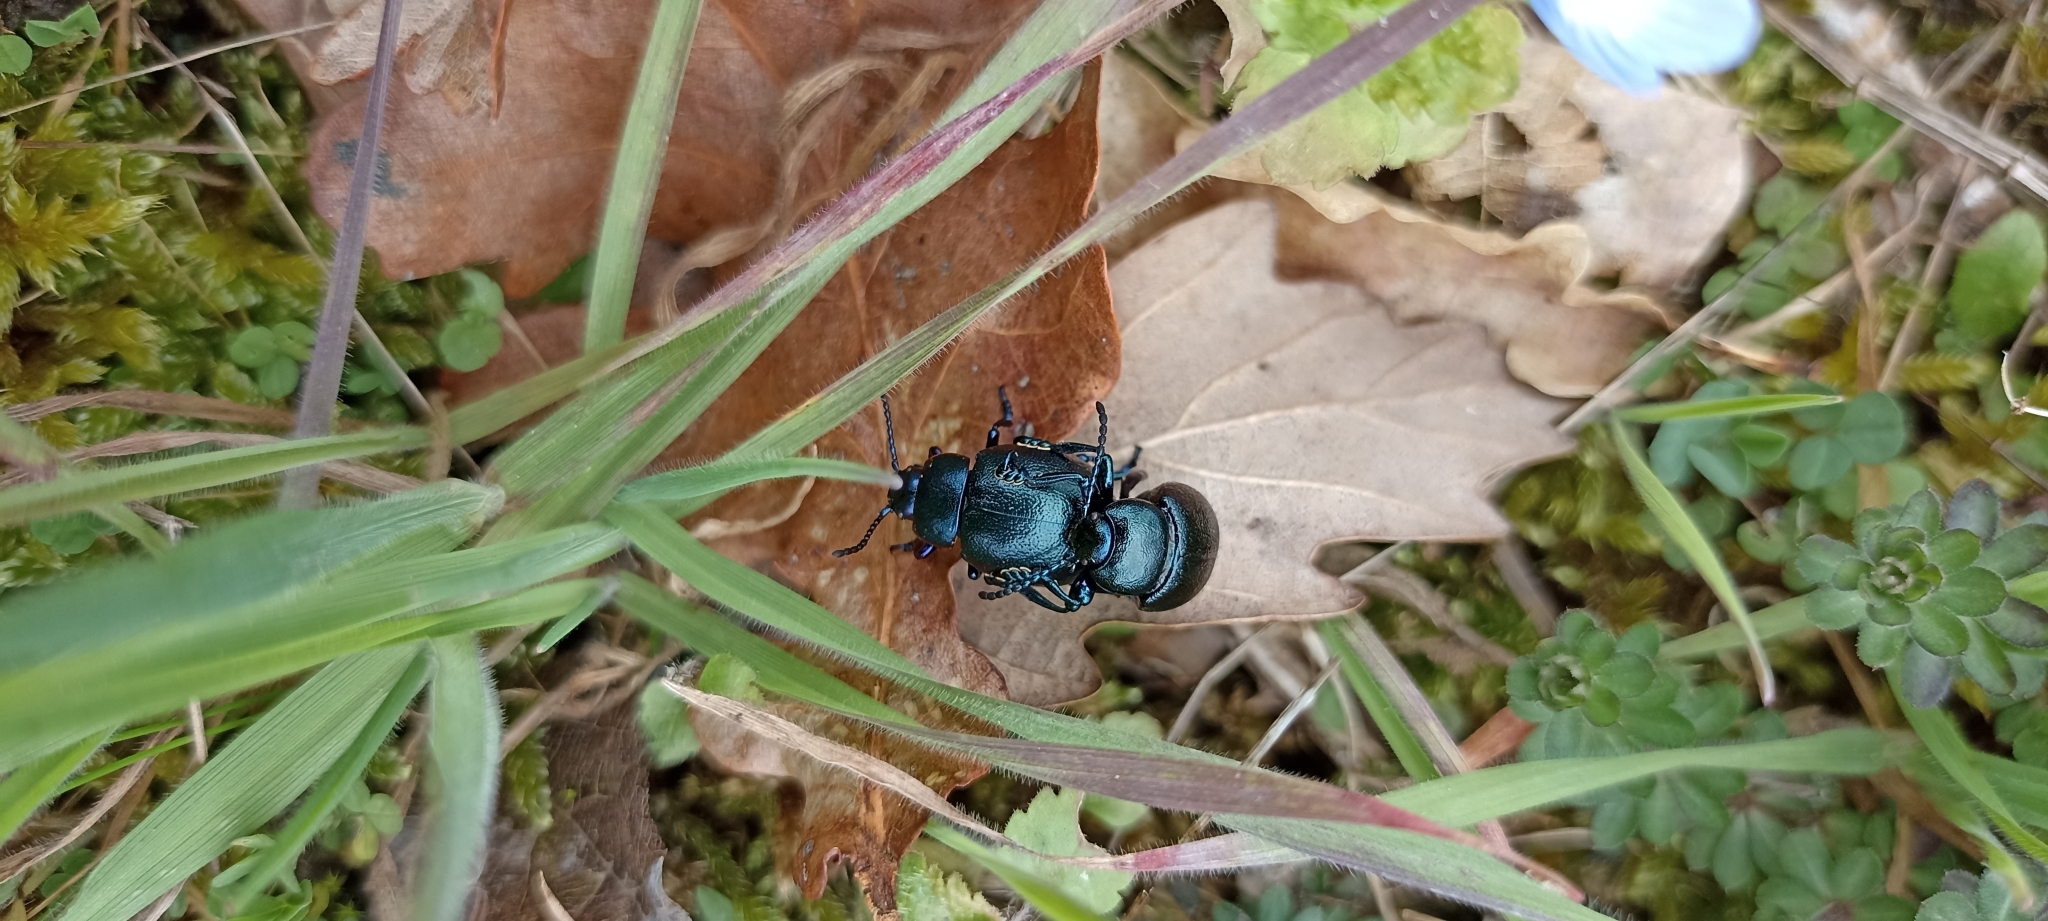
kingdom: Animalia
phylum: Arthropoda
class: Insecta
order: Coleoptera
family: Chrysomelidae
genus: Timarcha
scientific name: Timarcha goettingensis
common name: Small bloody-nosed beetle
